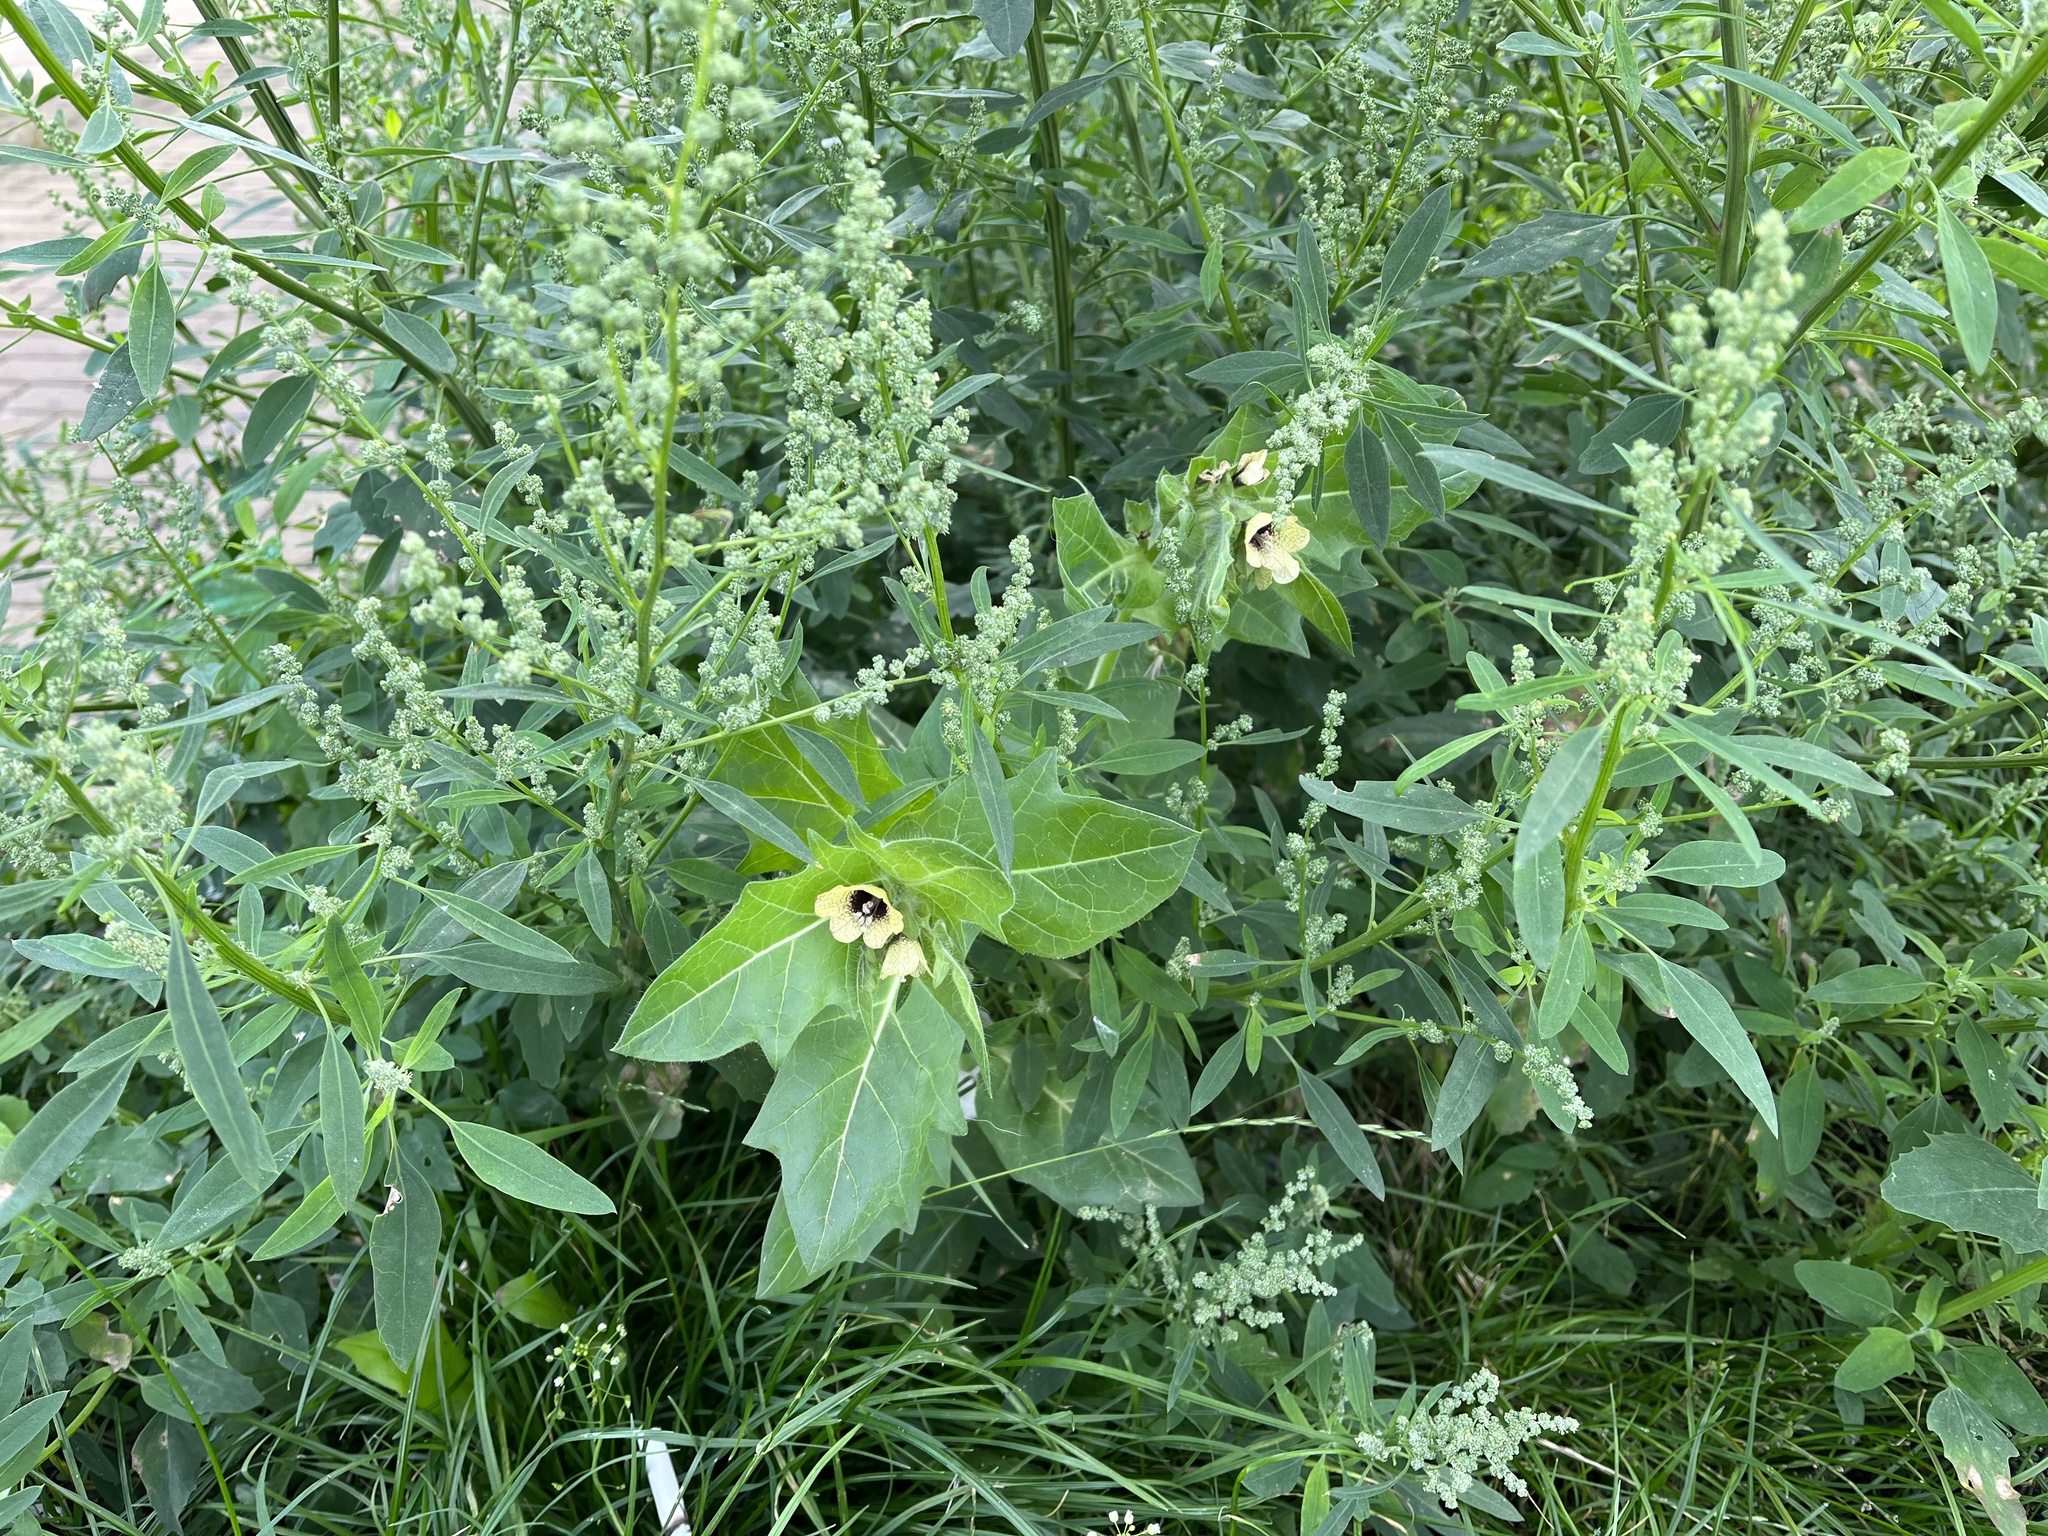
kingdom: Plantae
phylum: Tracheophyta
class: Magnoliopsida
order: Solanales
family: Solanaceae
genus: Hyoscyamus
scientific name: Hyoscyamus niger
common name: Henbane
